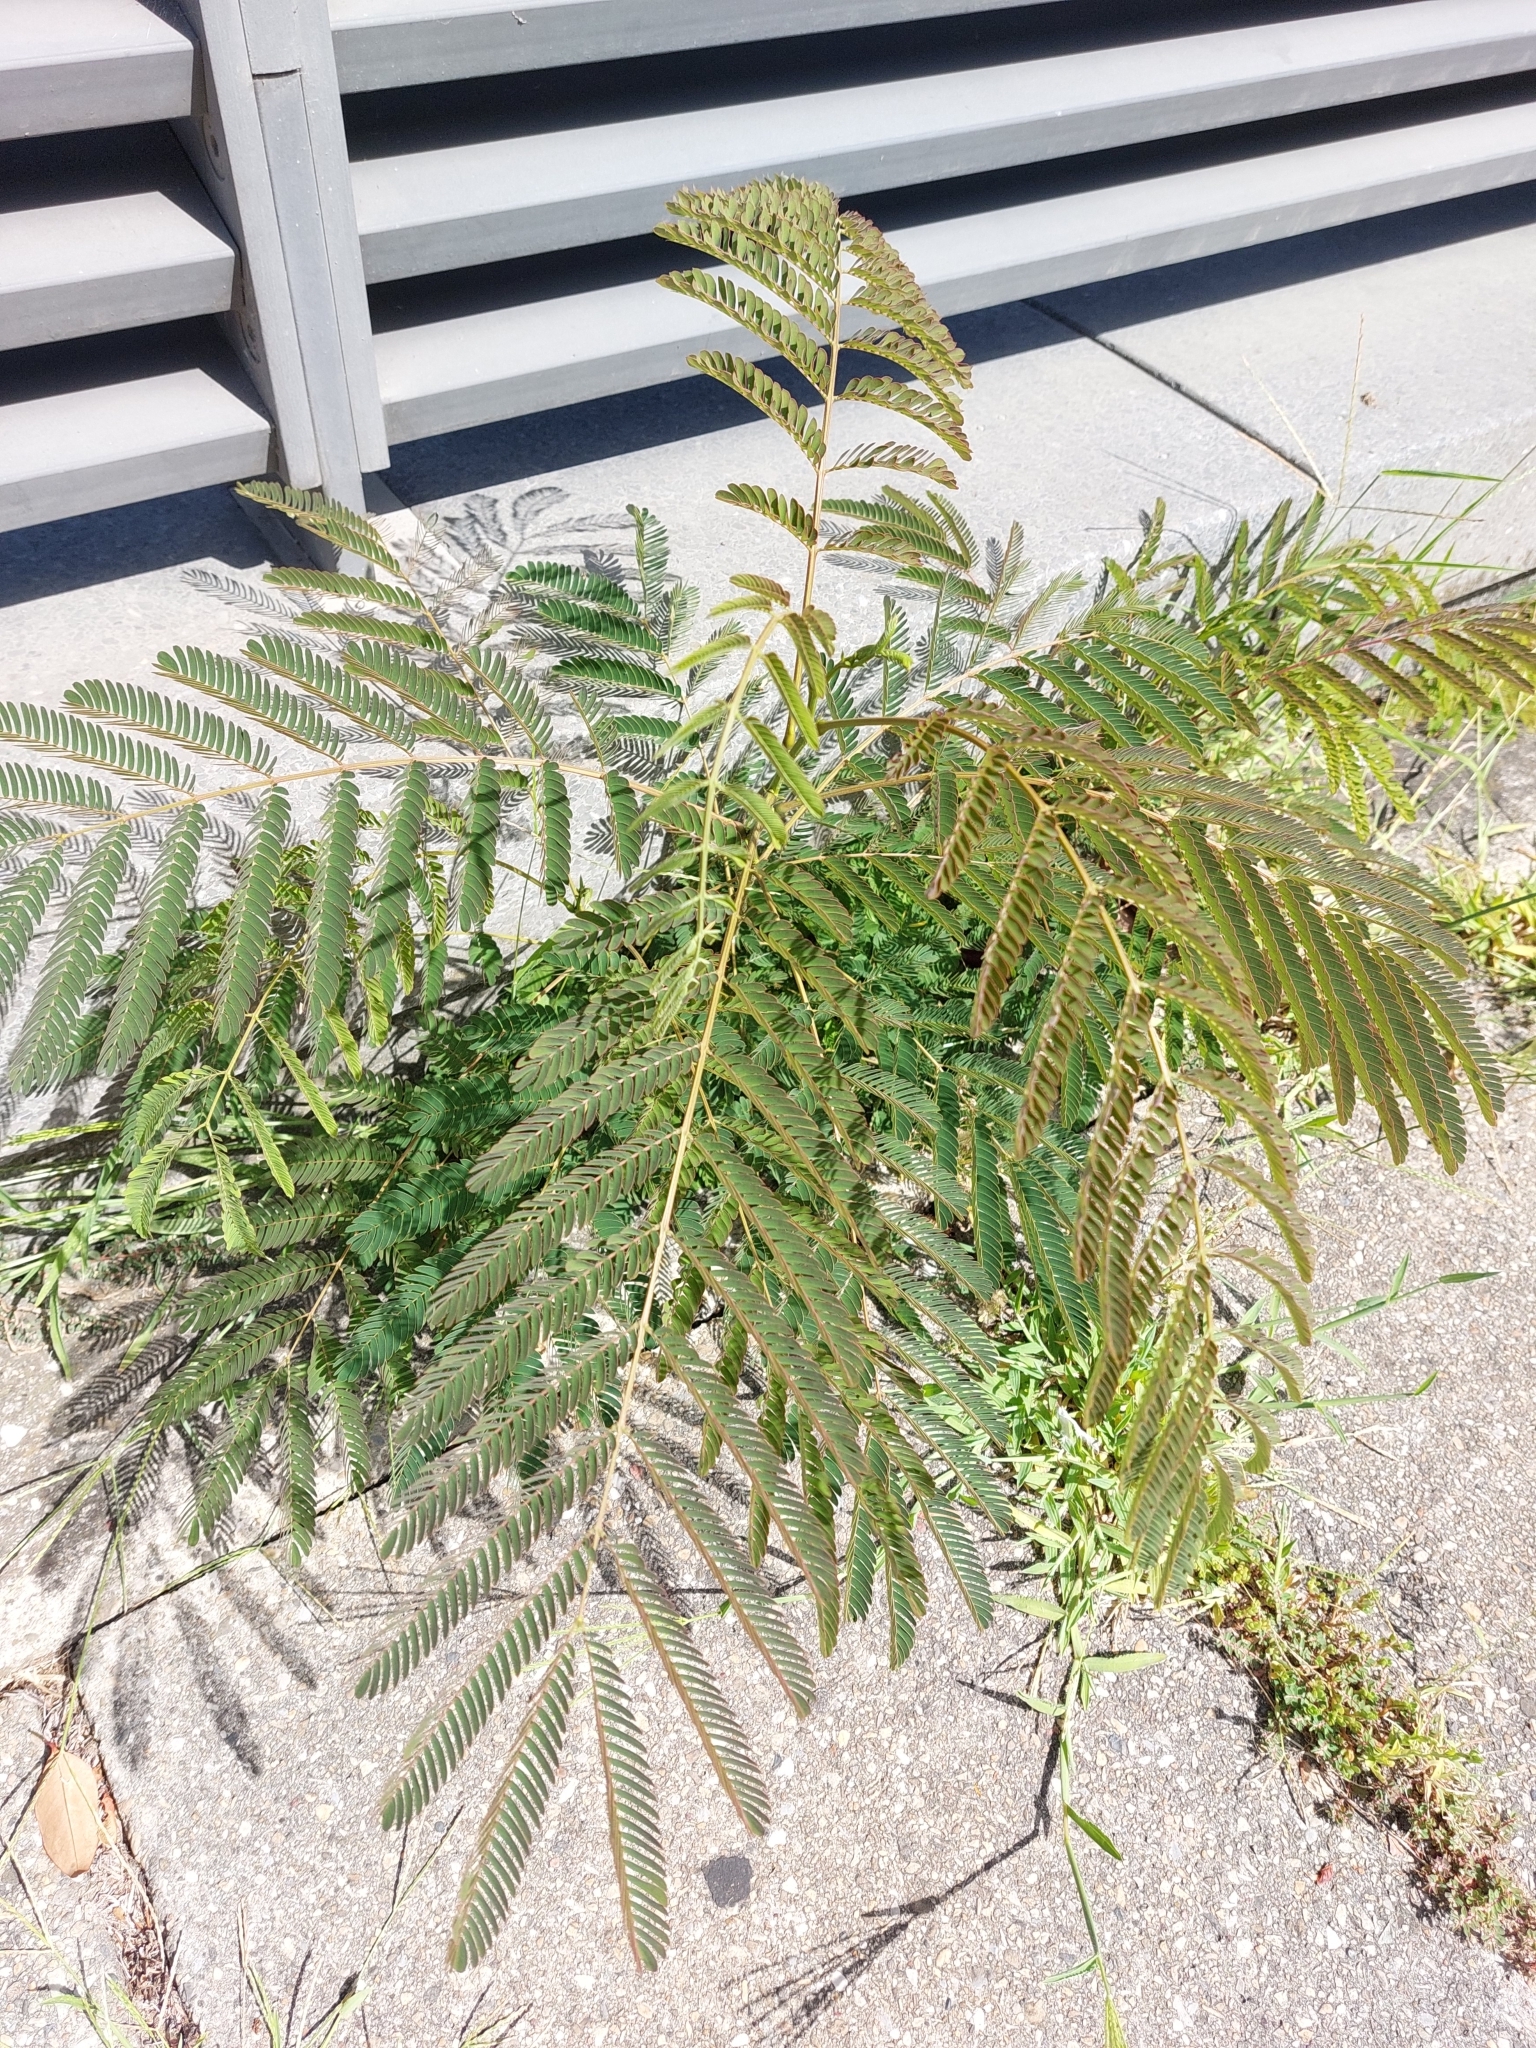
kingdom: Plantae
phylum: Tracheophyta
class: Magnoliopsida
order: Fabales
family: Fabaceae
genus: Albizia
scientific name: Albizia julibrissin
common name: Silktree
